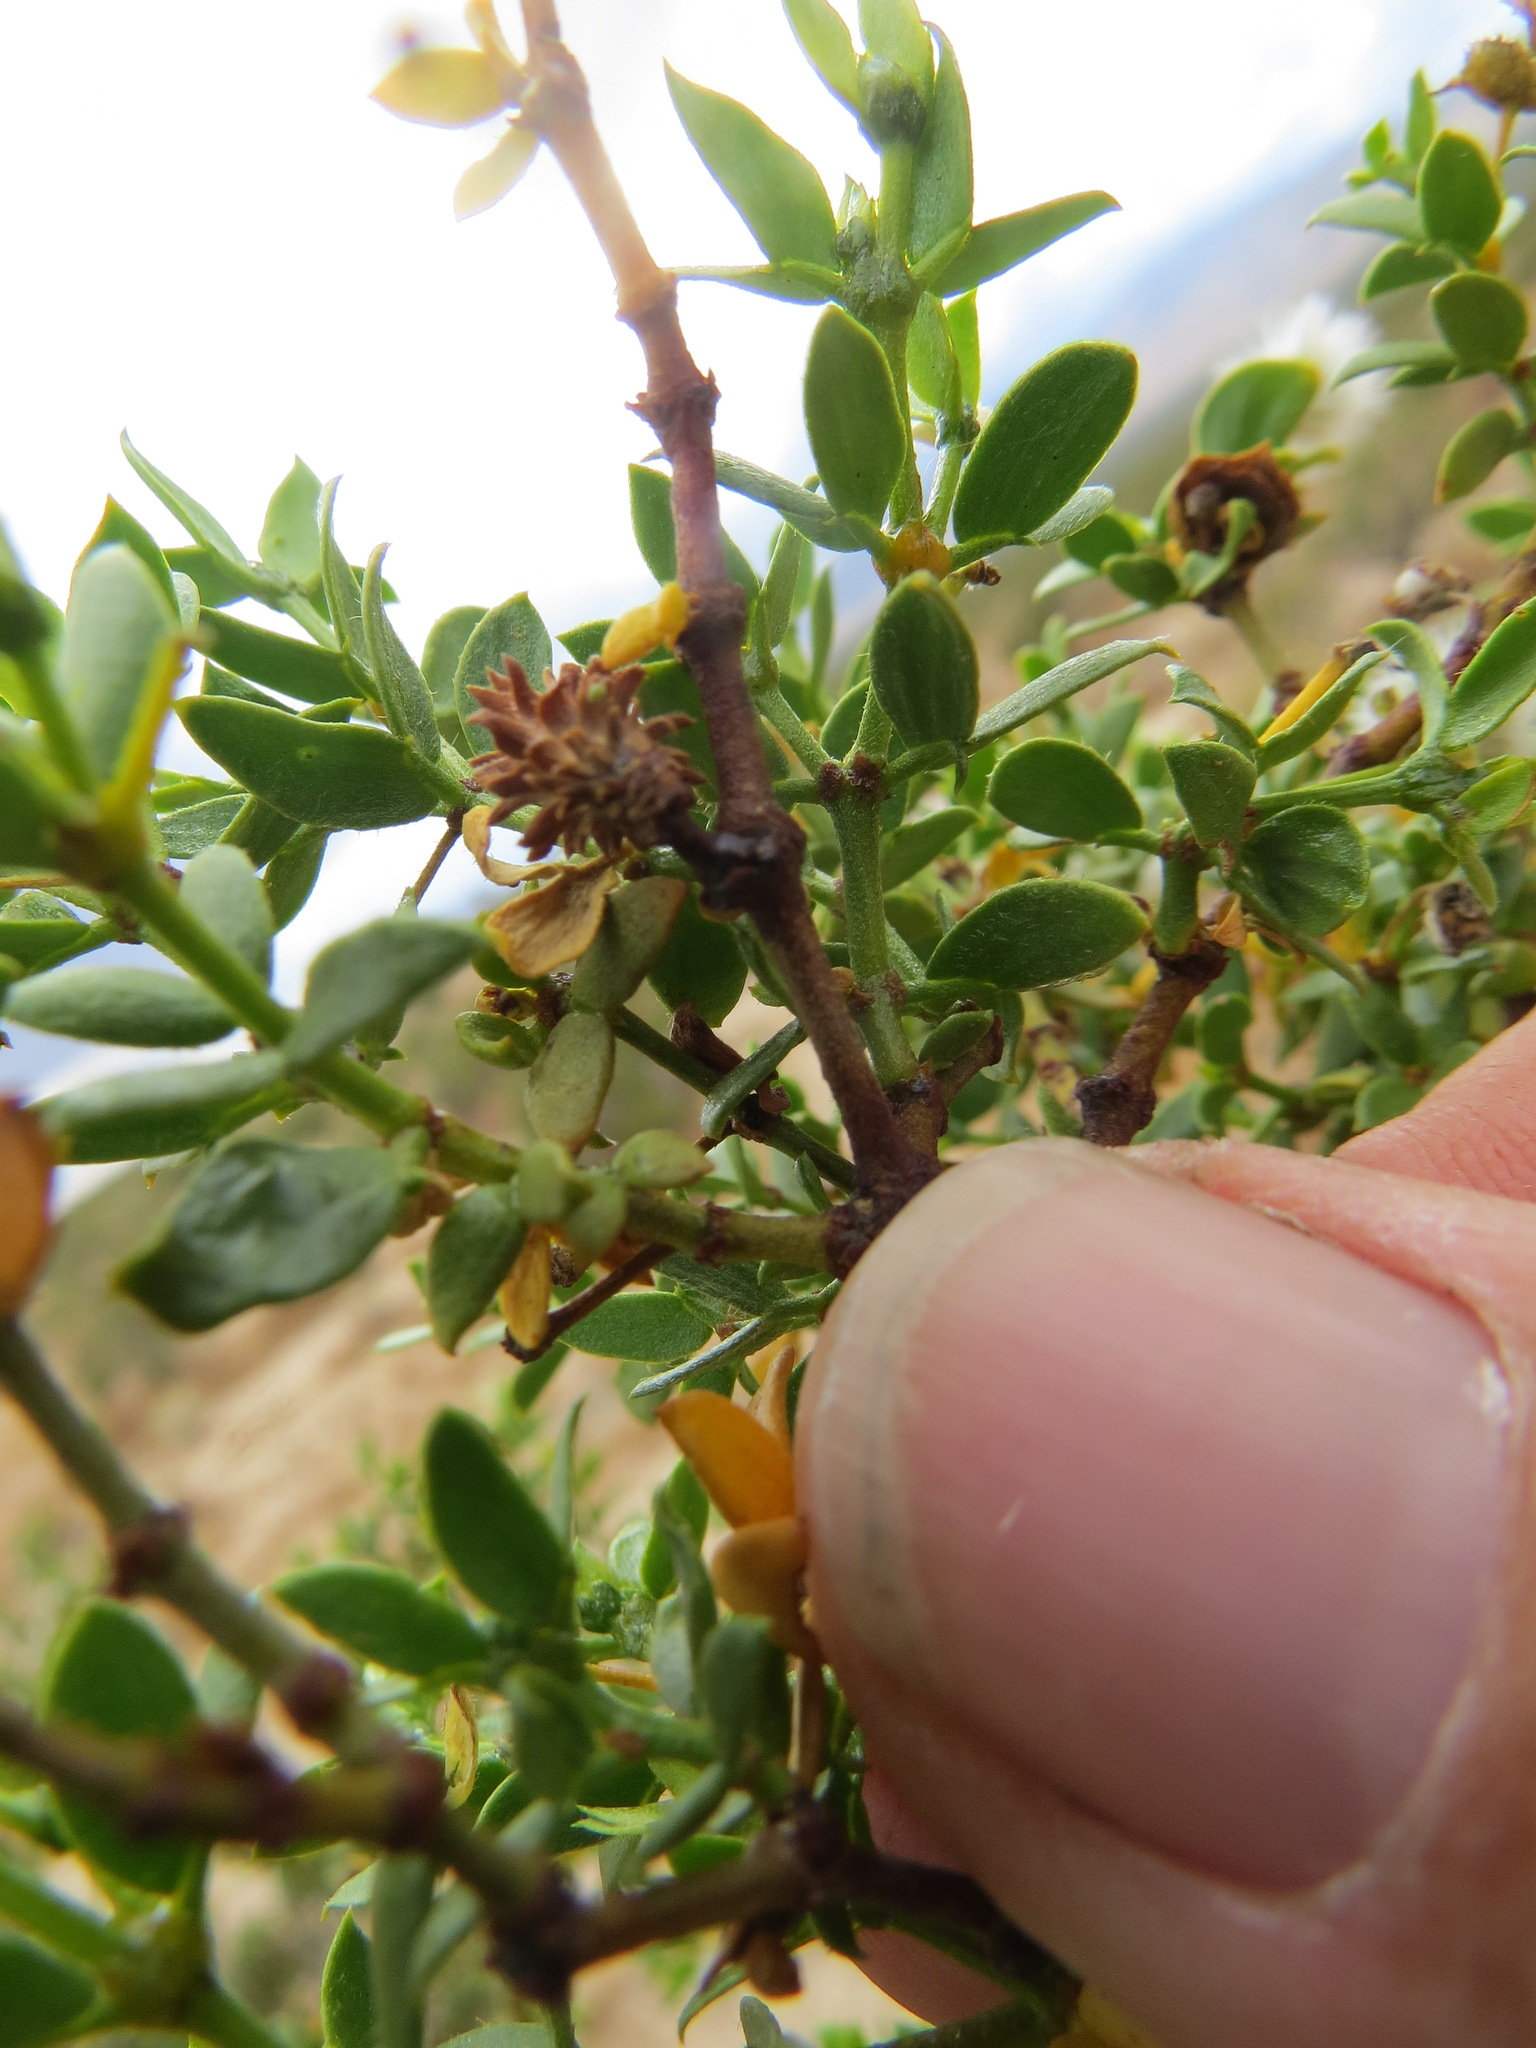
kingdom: Animalia
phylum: Arthropoda
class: Insecta
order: Diptera
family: Cecidomyiidae
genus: Asphondylia
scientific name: Asphondylia rosetta
